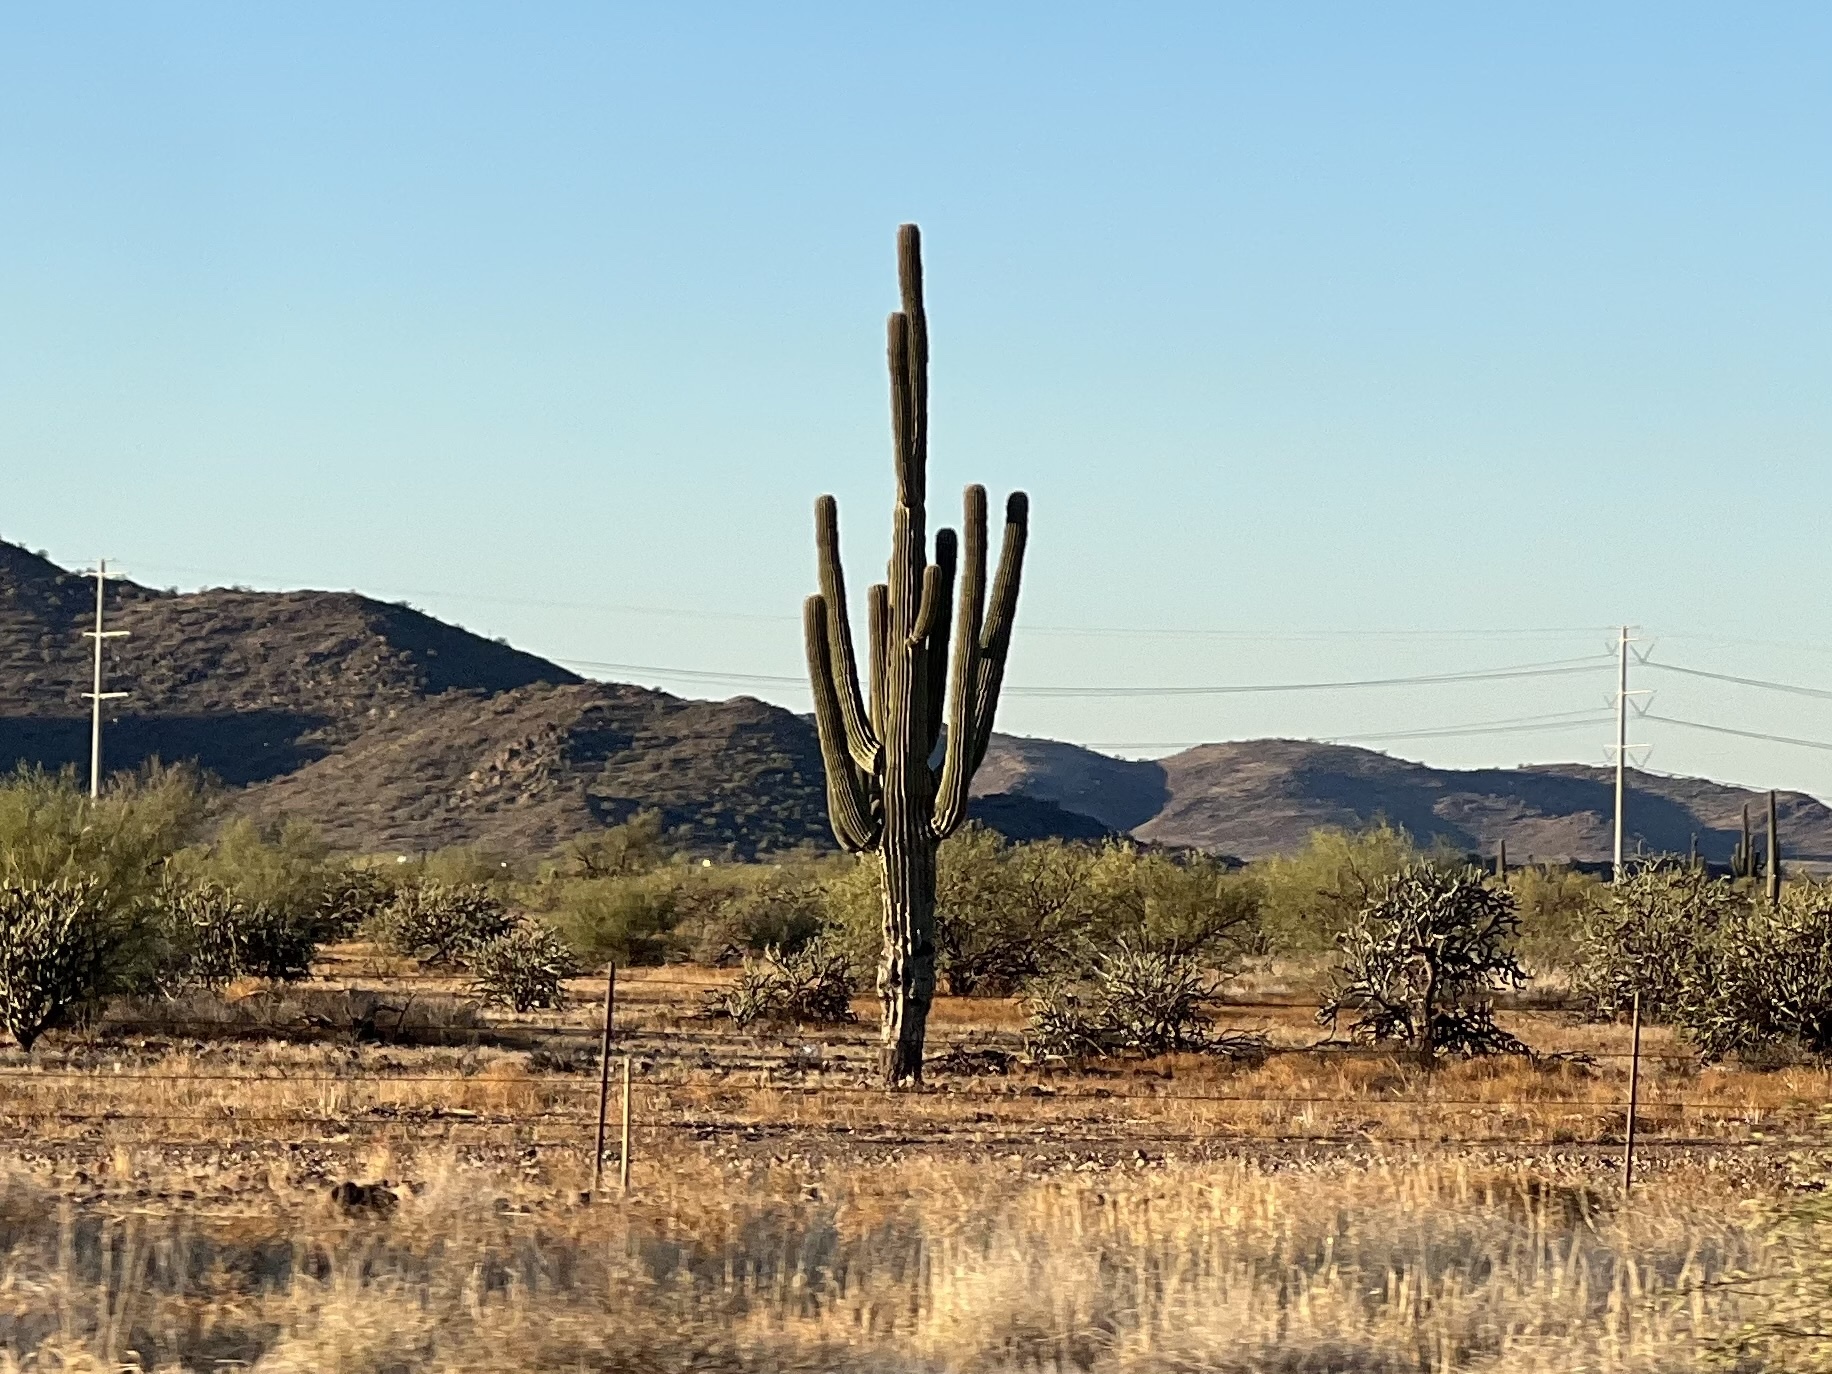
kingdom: Plantae
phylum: Tracheophyta
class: Magnoliopsida
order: Caryophyllales
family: Cactaceae
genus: Carnegiea
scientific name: Carnegiea gigantea
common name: Saguaro
